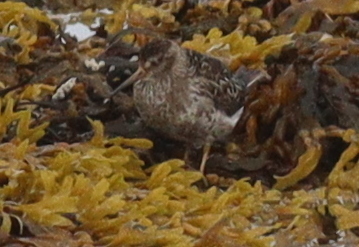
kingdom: Animalia
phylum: Chordata
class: Aves
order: Charadriiformes
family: Scolopacidae
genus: Calidris
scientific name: Calidris maritima
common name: Purple sandpiper
